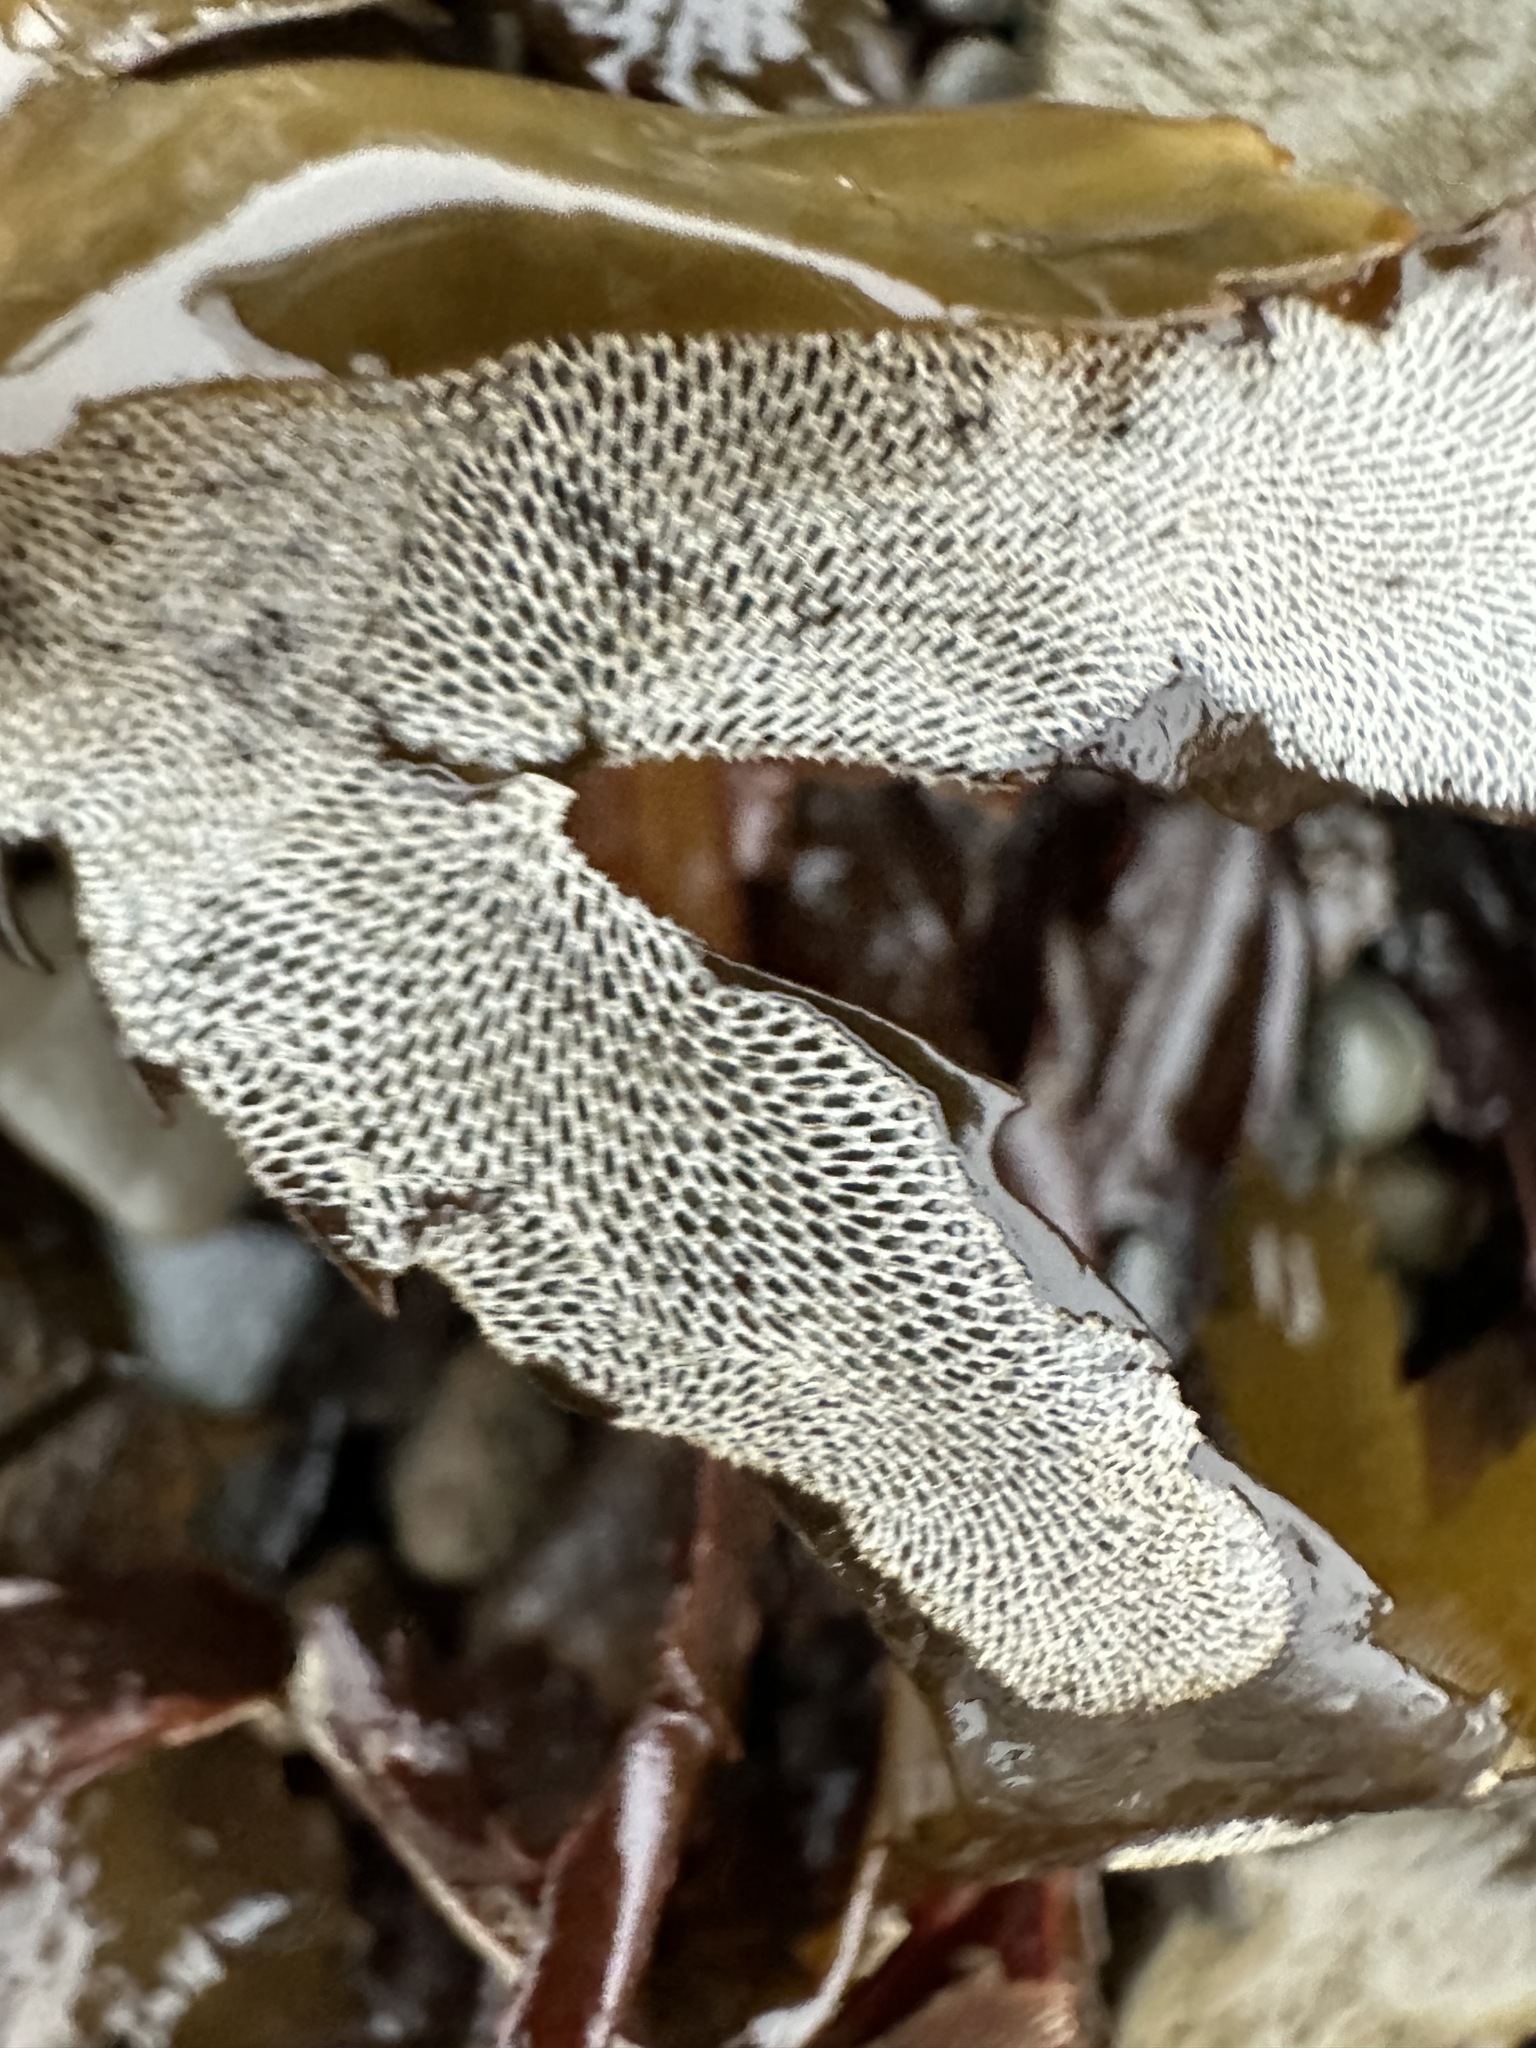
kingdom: Animalia
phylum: Bryozoa
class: Gymnolaemata
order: Cheilostomatida
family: Membraniporidae
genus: Membranipora
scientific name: Membranipora membranacea
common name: Sea mat
